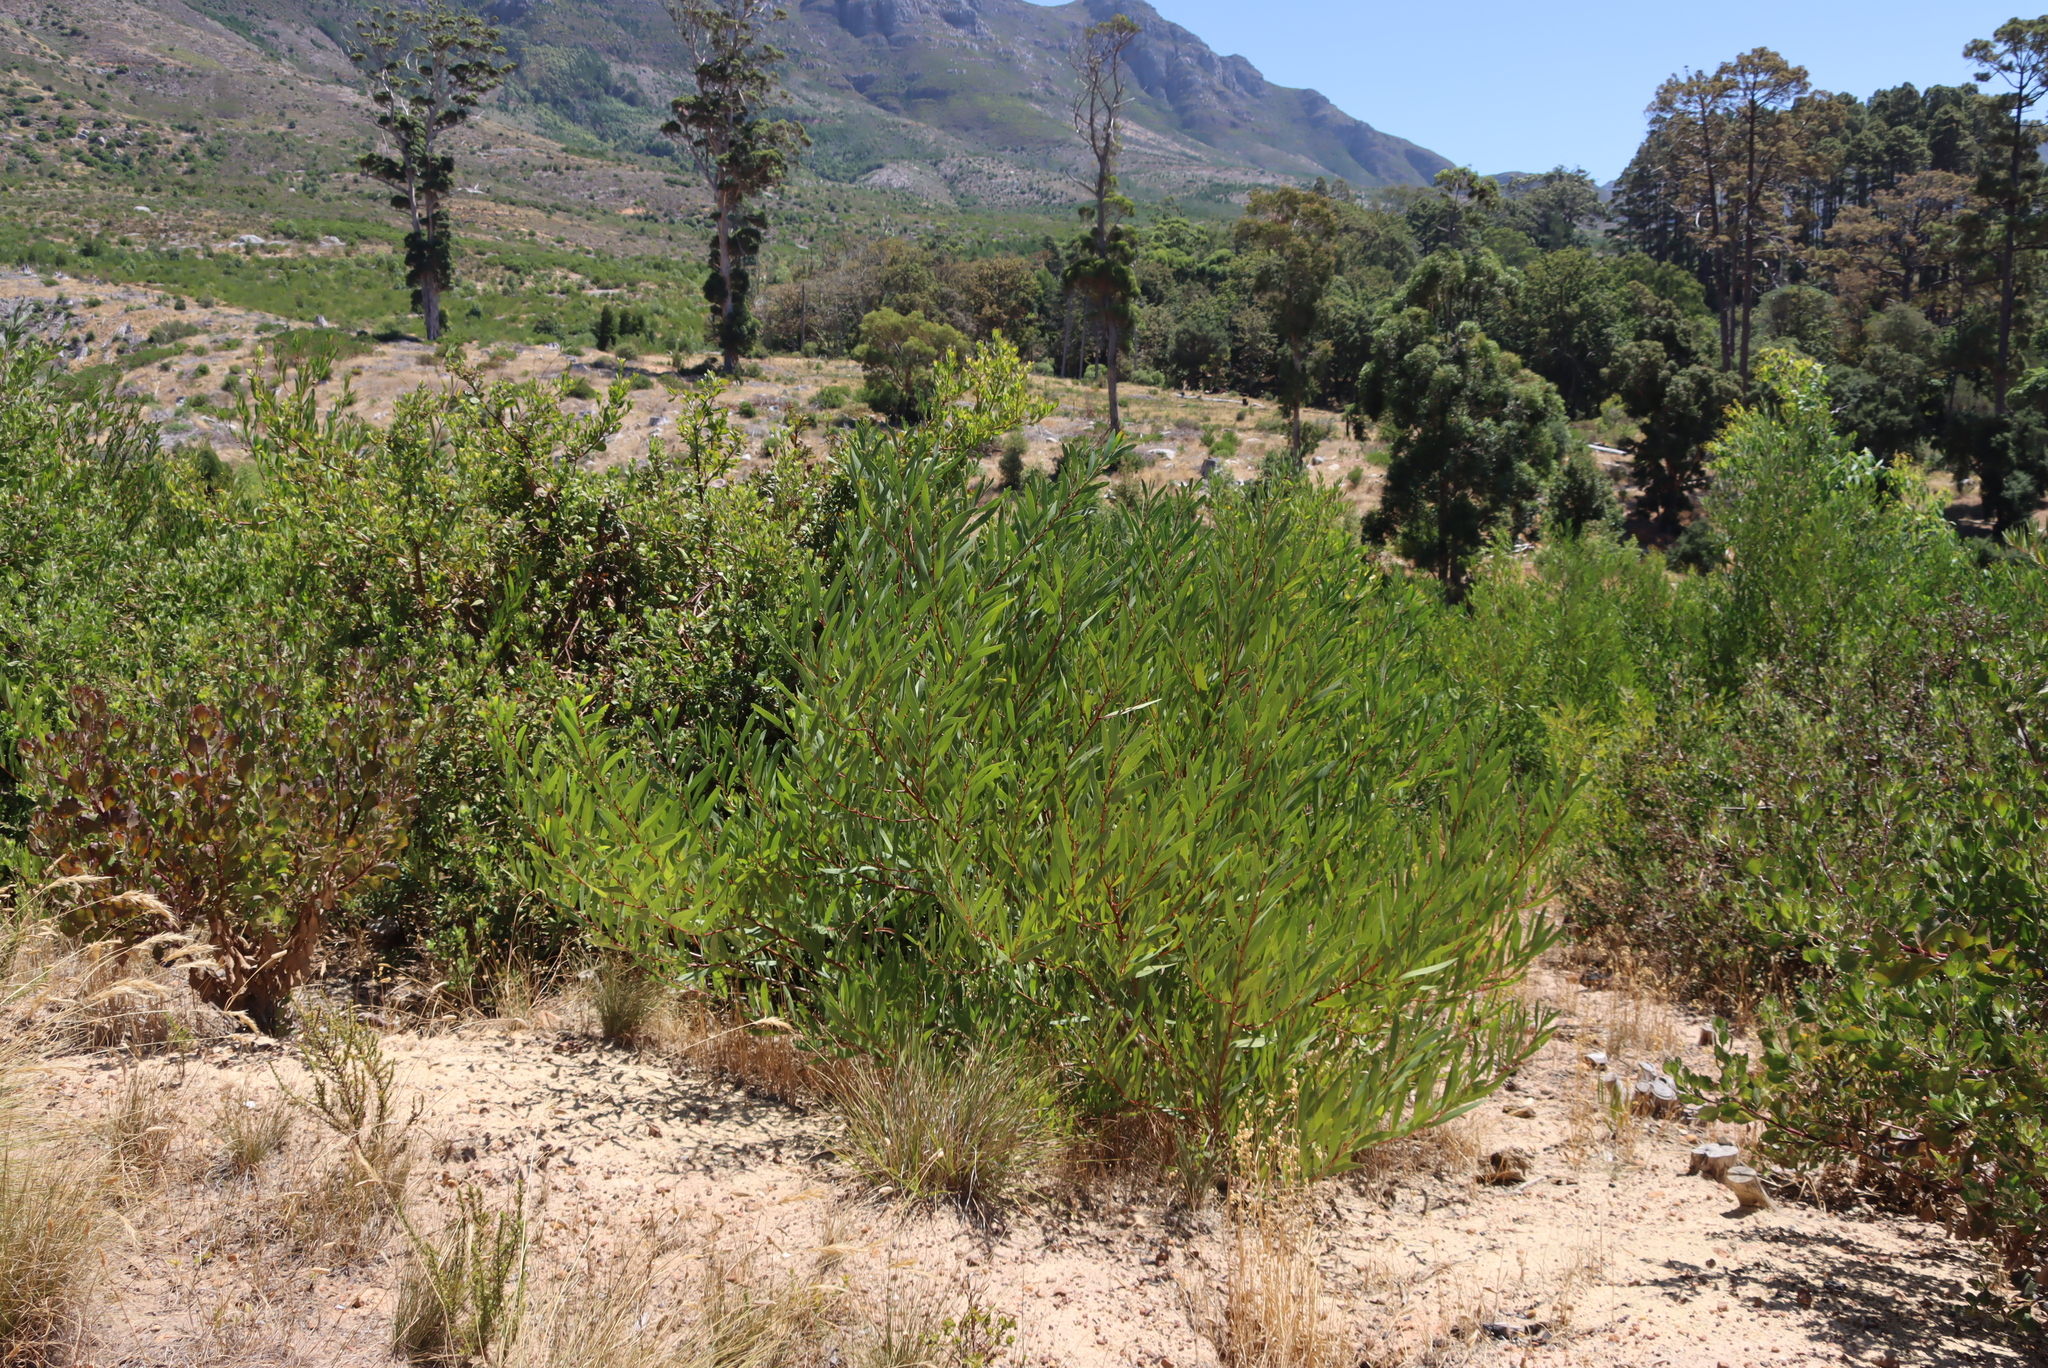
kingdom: Plantae
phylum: Tracheophyta
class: Magnoliopsida
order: Fabales
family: Fabaceae
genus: Acacia
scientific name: Acacia longifolia
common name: Sydney golden wattle
